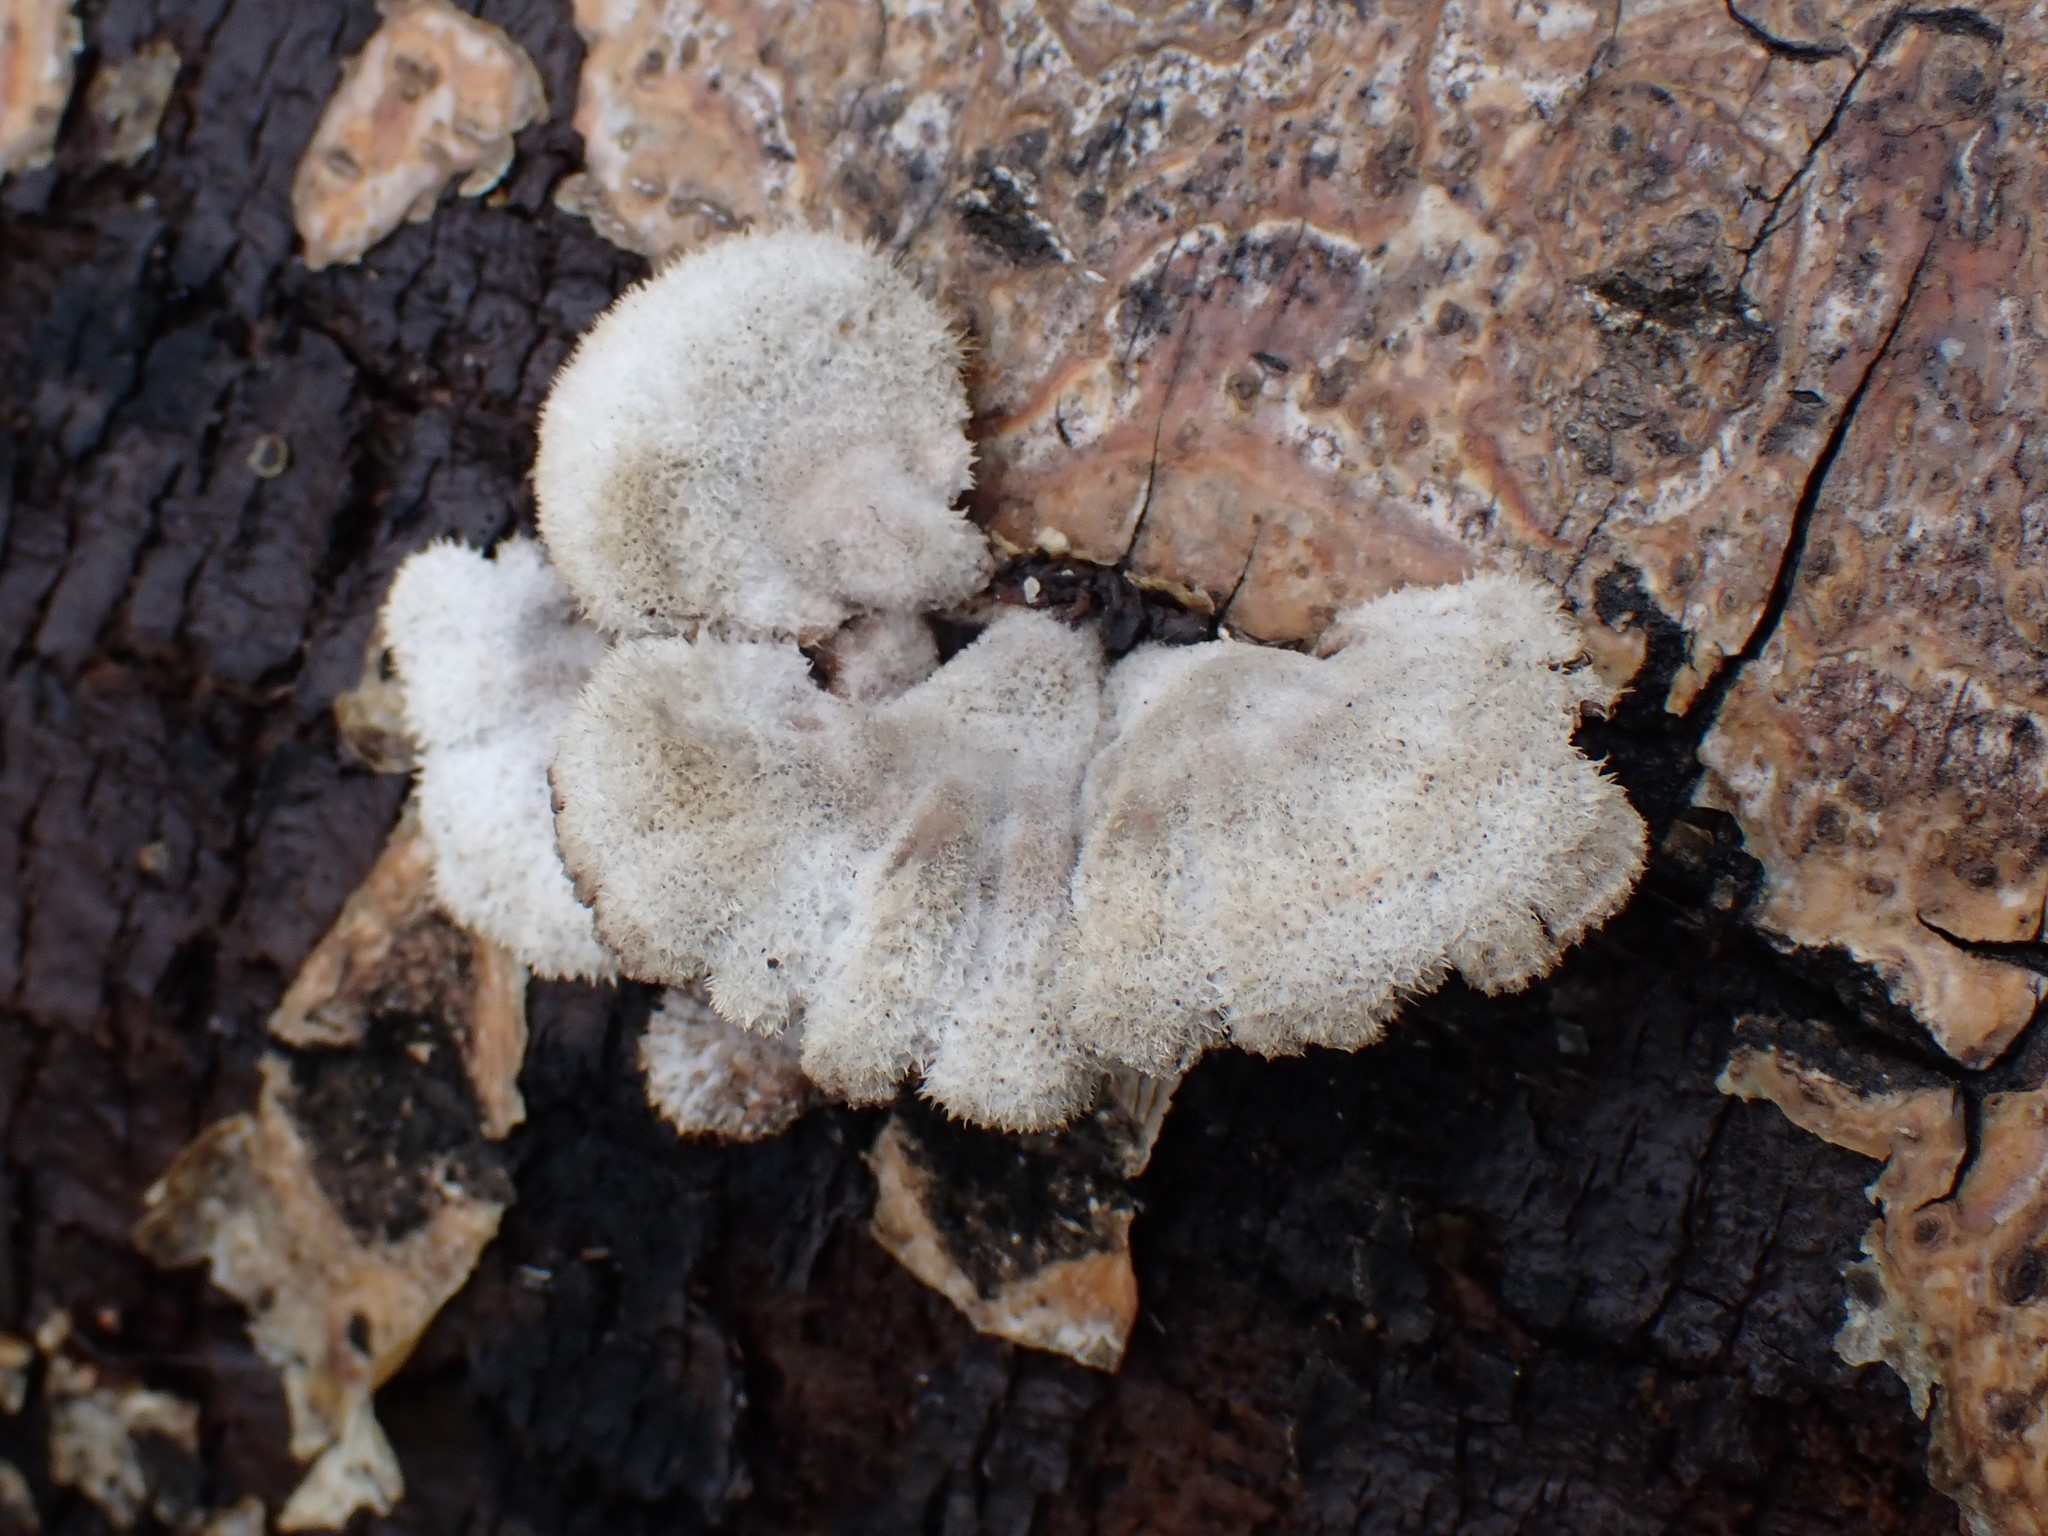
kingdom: Fungi
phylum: Basidiomycota
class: Agaricomycetes
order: Agaricales
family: Schizophyllaceae
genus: Schizophyllum
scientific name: Schizophyllum commune
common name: Common porecrust
